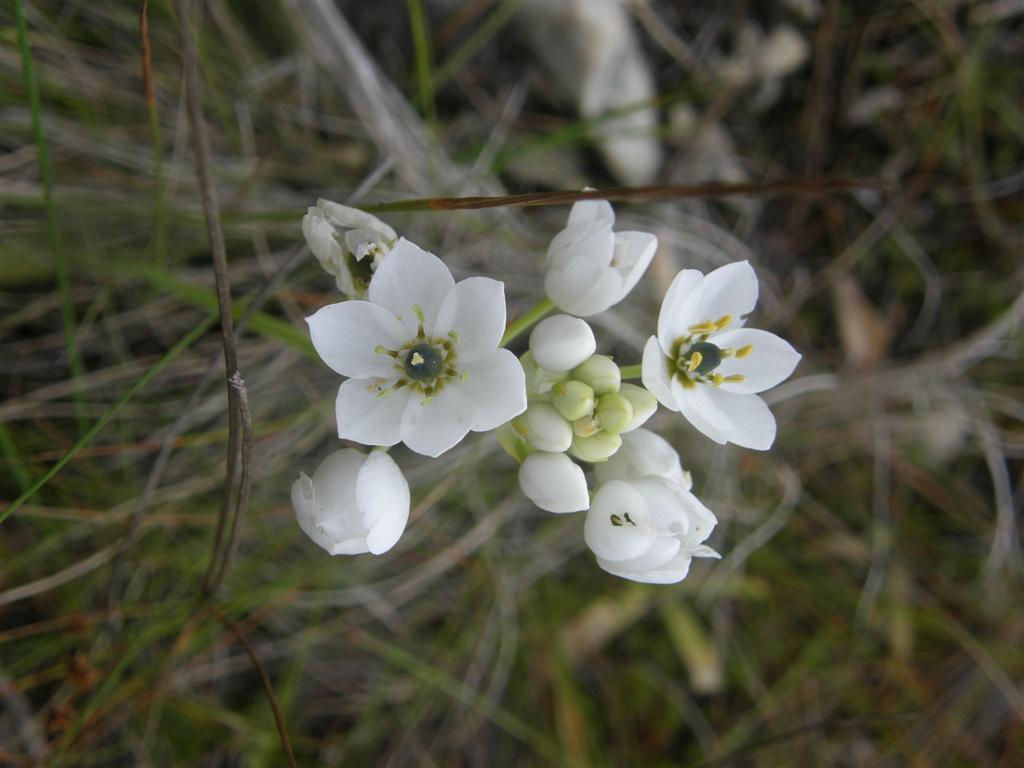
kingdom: Plantae
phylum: Tracheophyta
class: Liliopsida
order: Asparagales
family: Asparagaceae
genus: Ornithogalum
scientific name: Ornithogalum thyrsoides
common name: Chincherinchee
